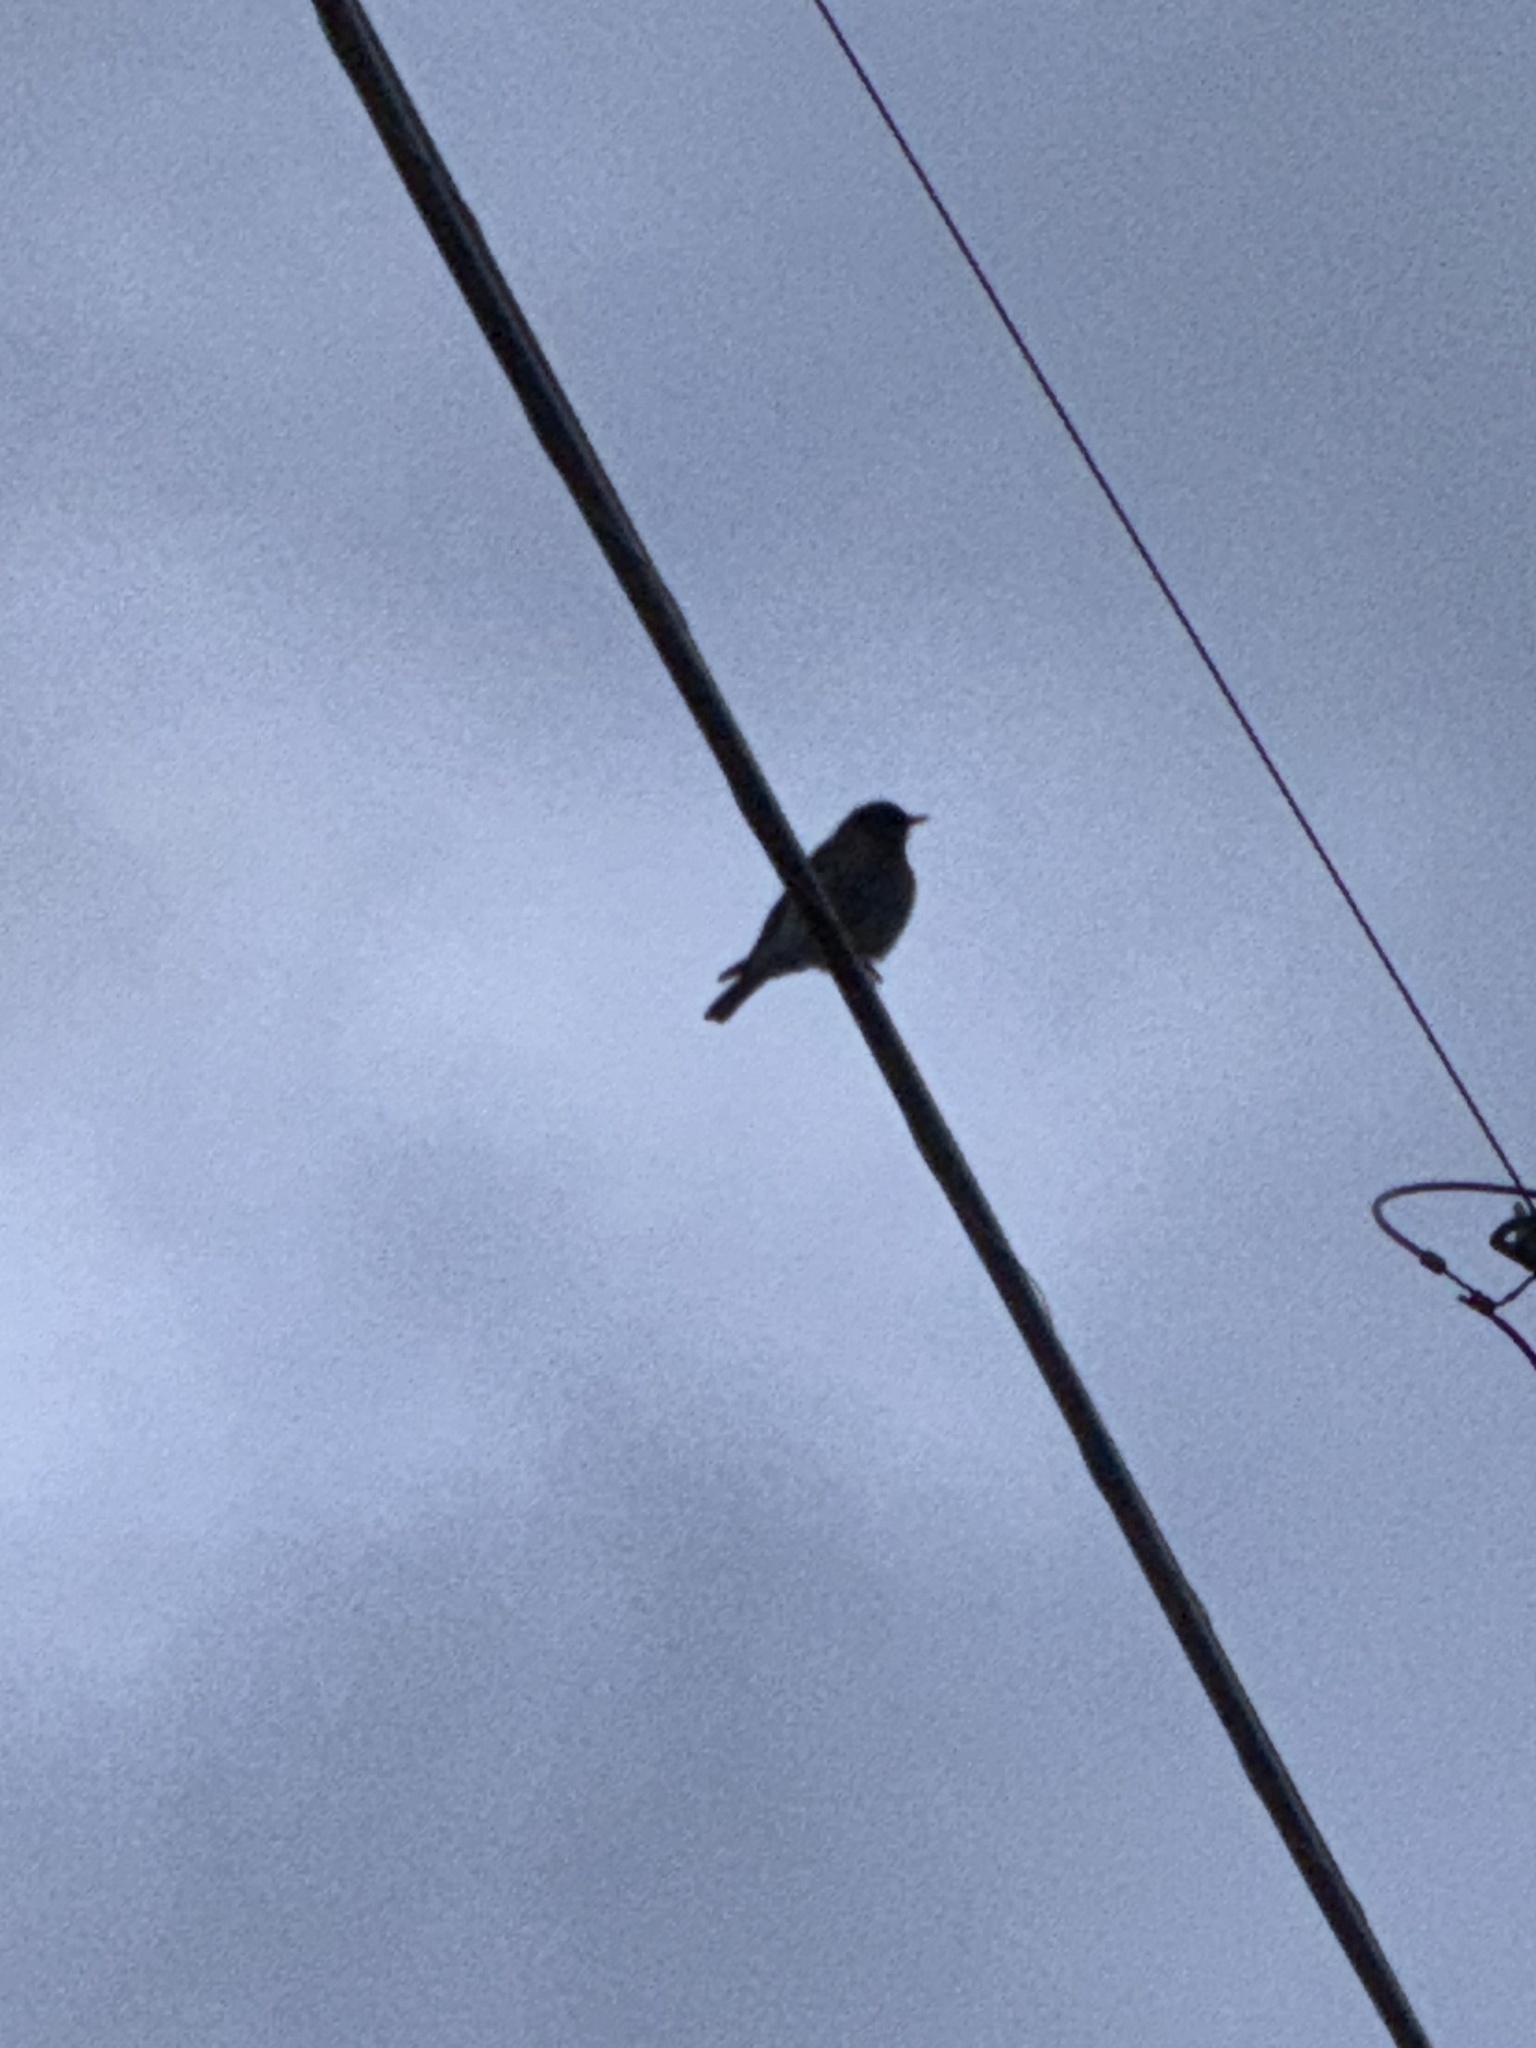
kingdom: Animalia
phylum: Chordata
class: Aves
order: Passeriformes
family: Turdidae
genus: Sialia
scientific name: Sialia mexicana
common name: Western bluebird
